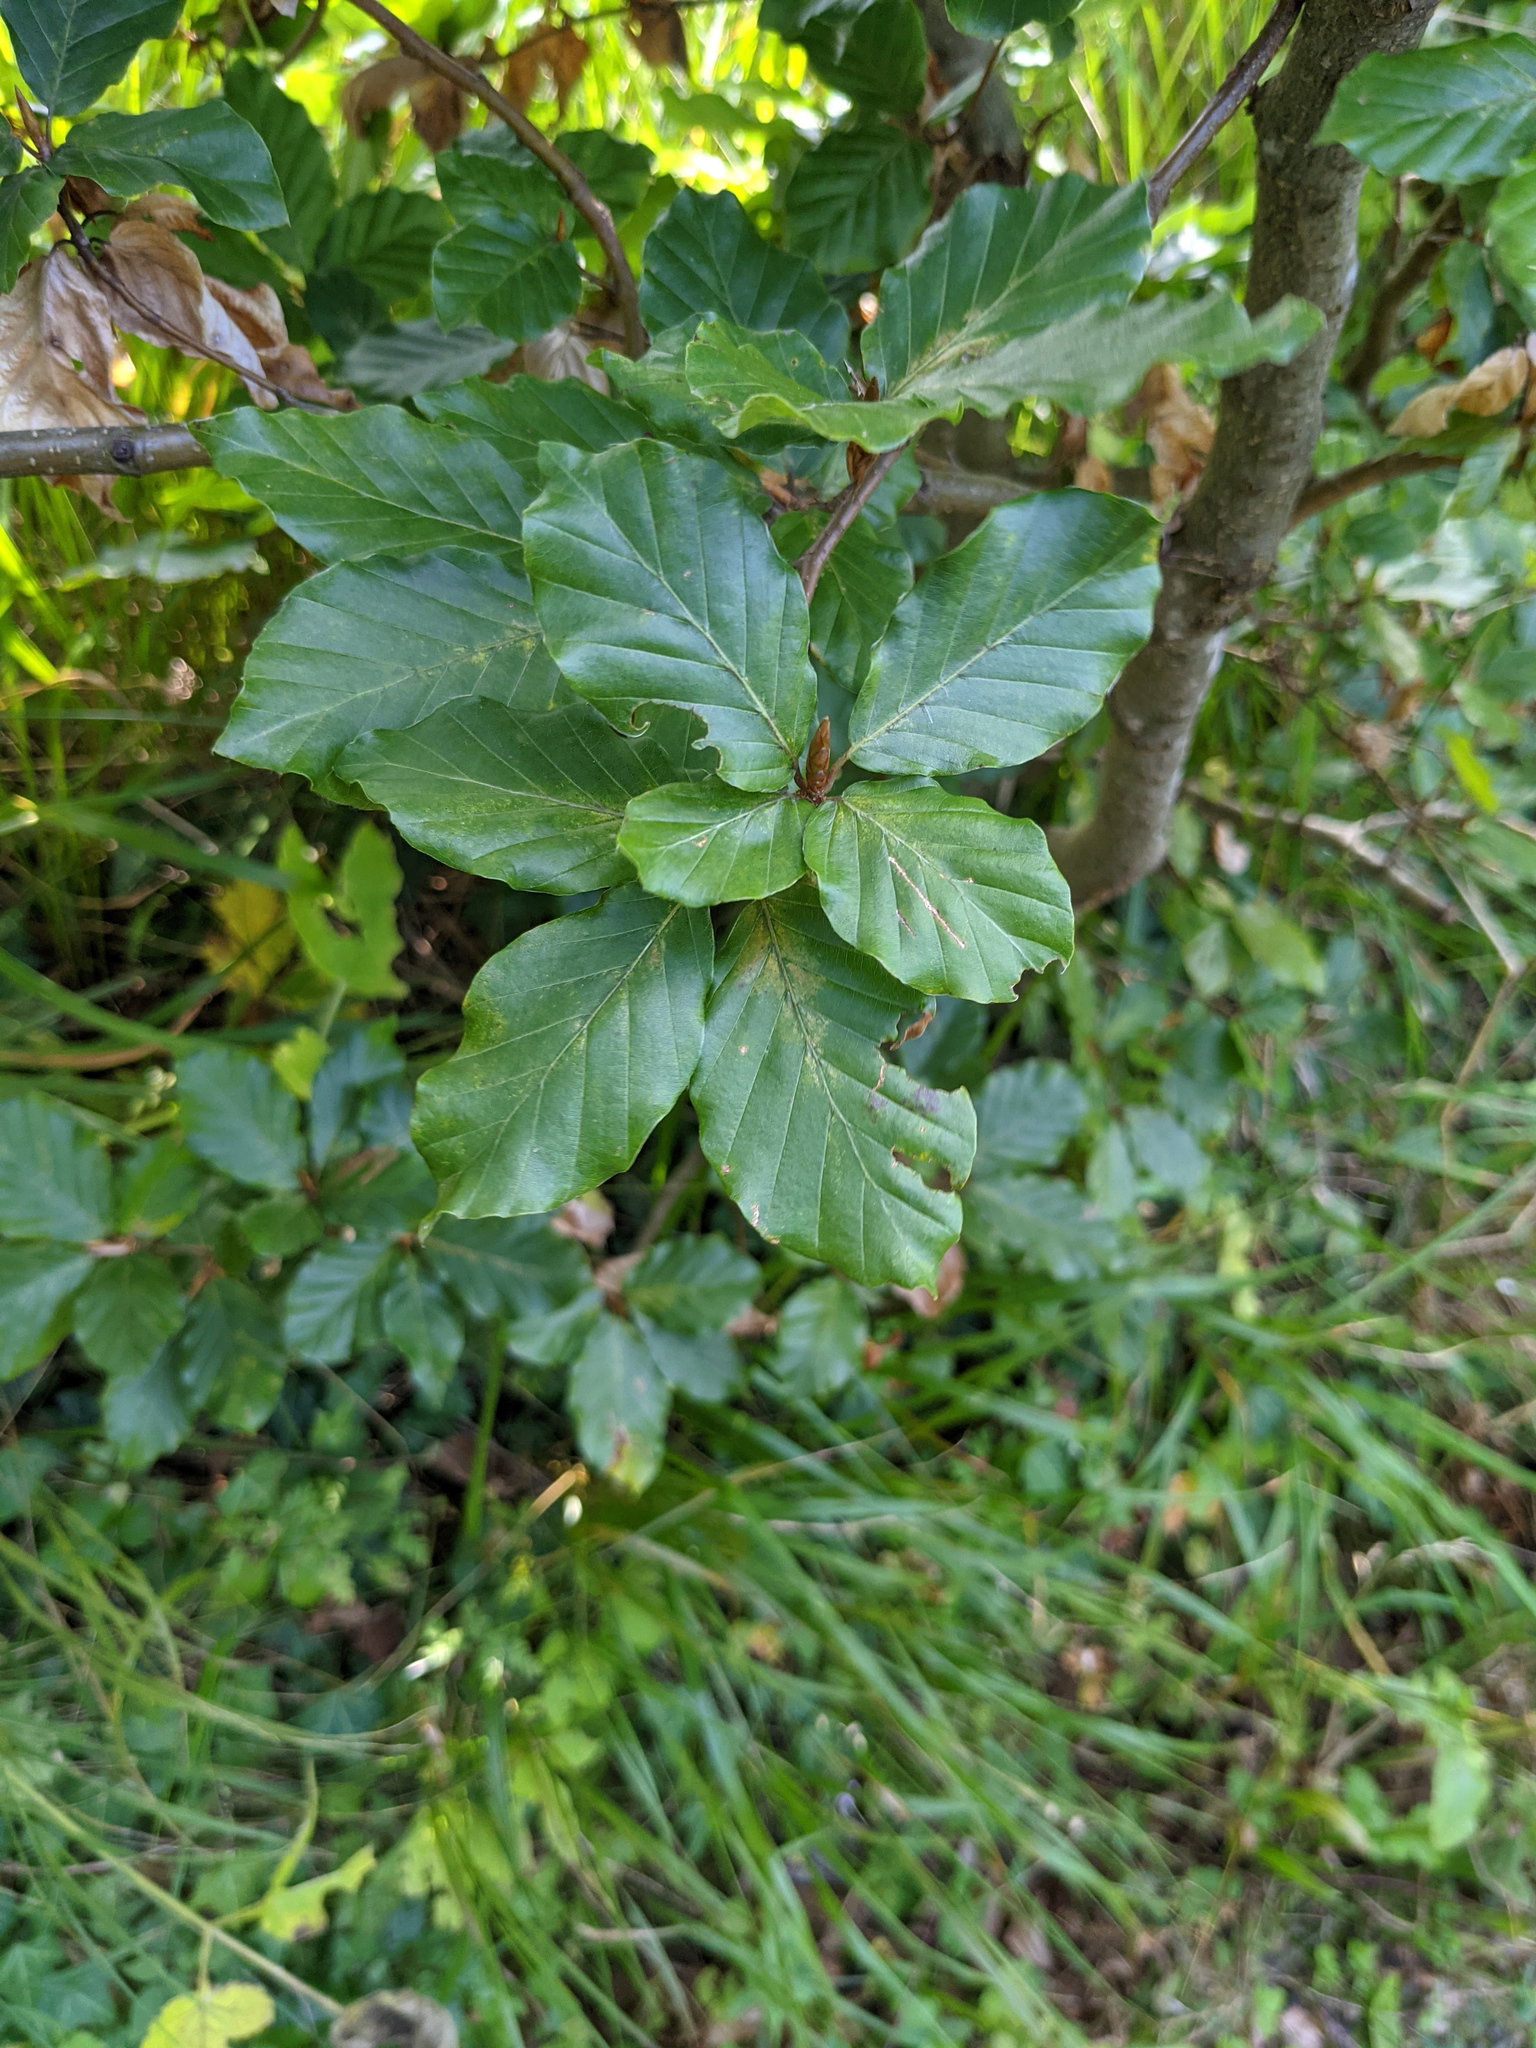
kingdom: Plantae
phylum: Tracheophyta
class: Magnoliopsida
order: Fagales
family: Fagaceae
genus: Fagus
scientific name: Fagus sylvatica
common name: Beech
